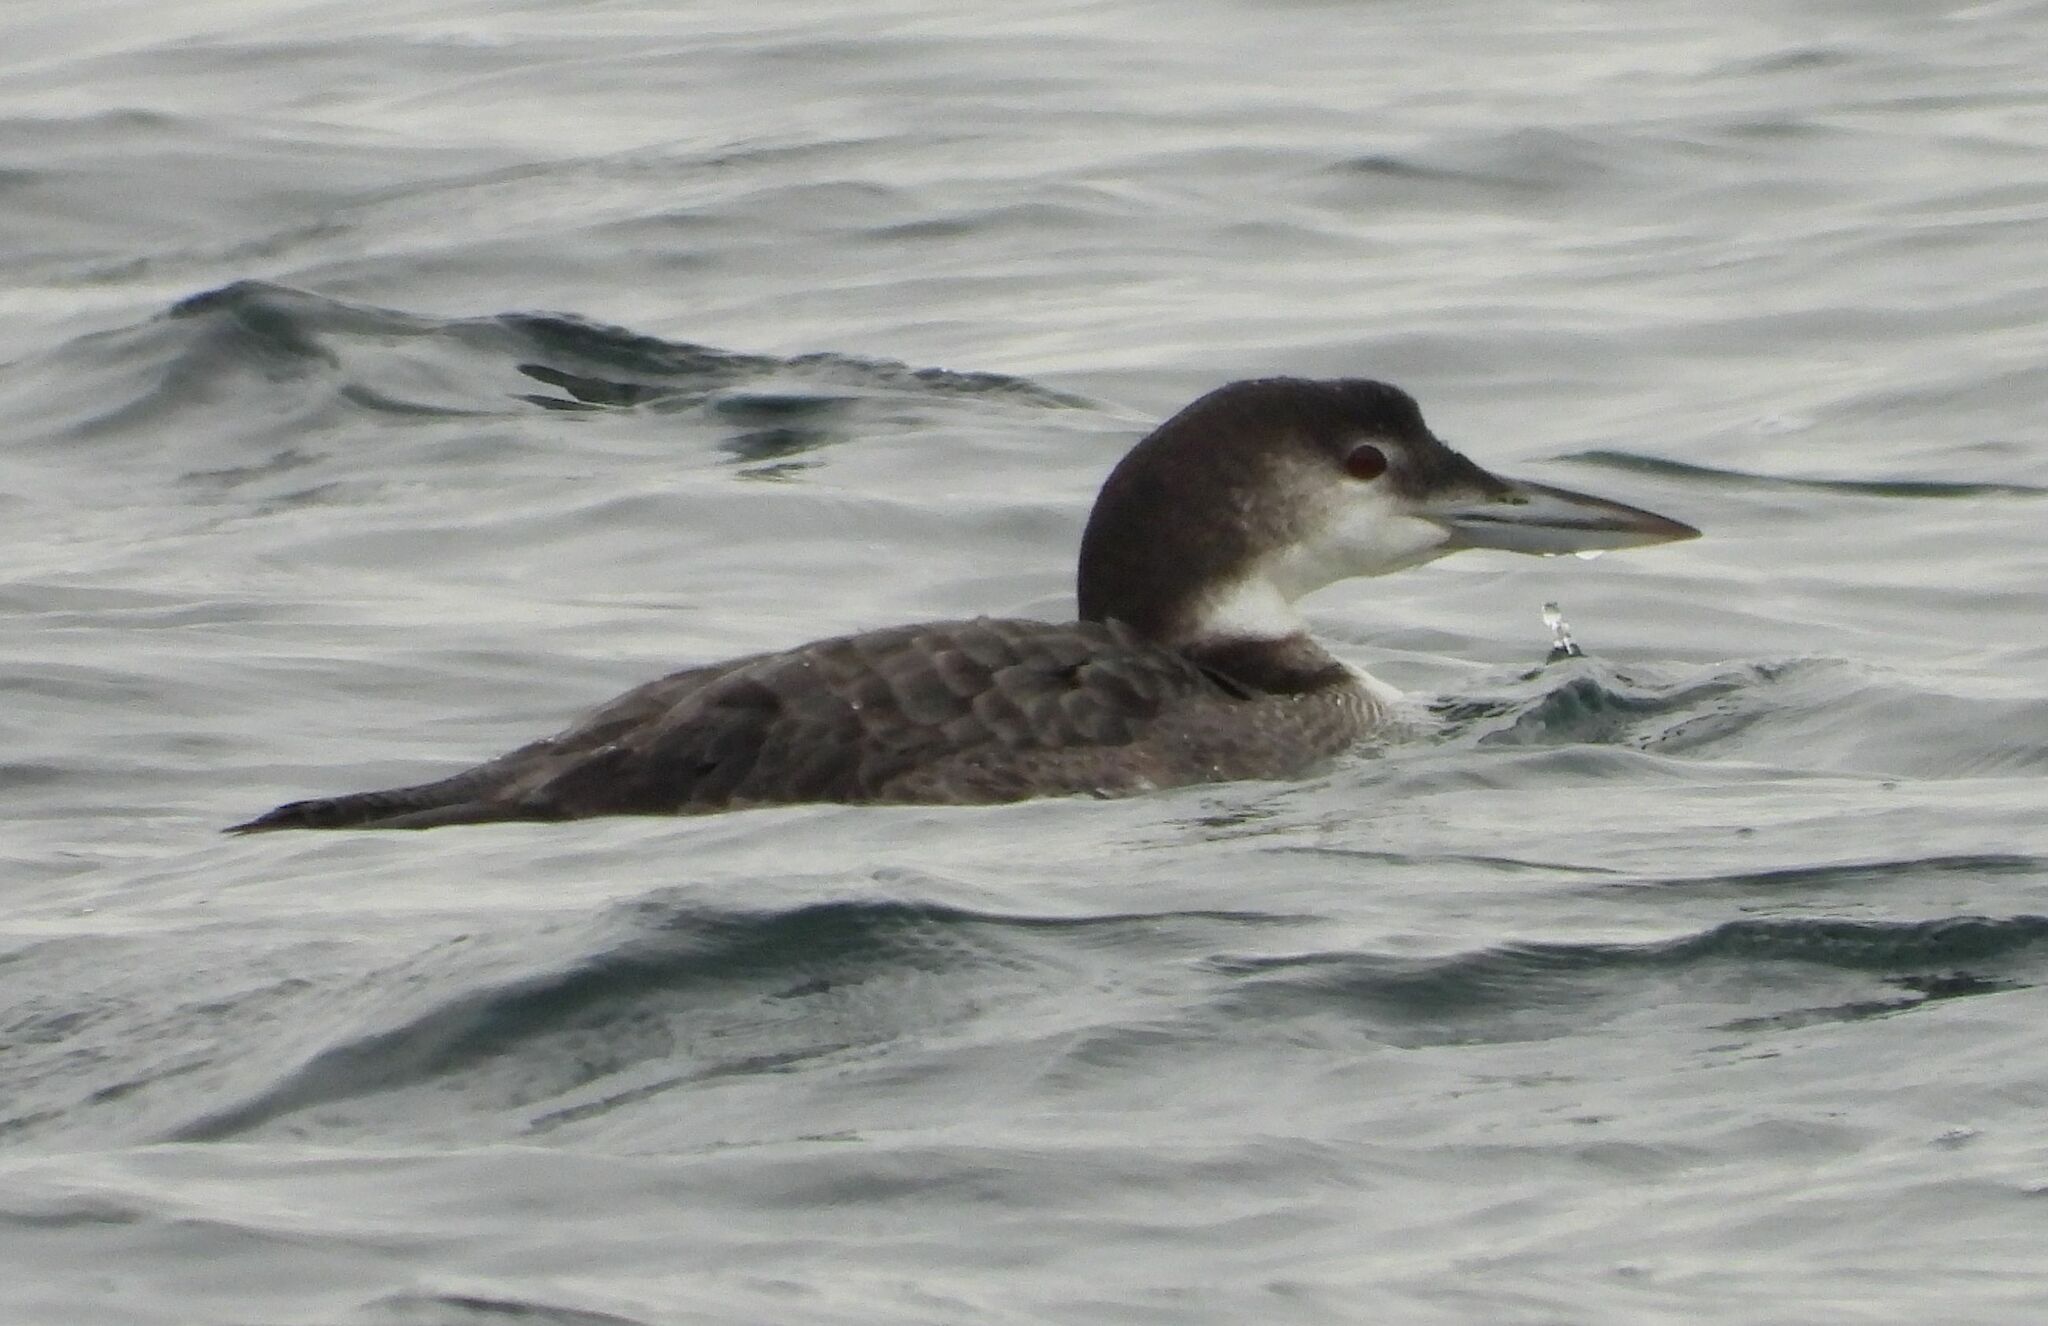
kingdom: Animalia
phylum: Chordata
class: Aves
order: Gaviiformes
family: Gaviidae
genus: Gavia
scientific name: Gavia immer
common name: Common loon
